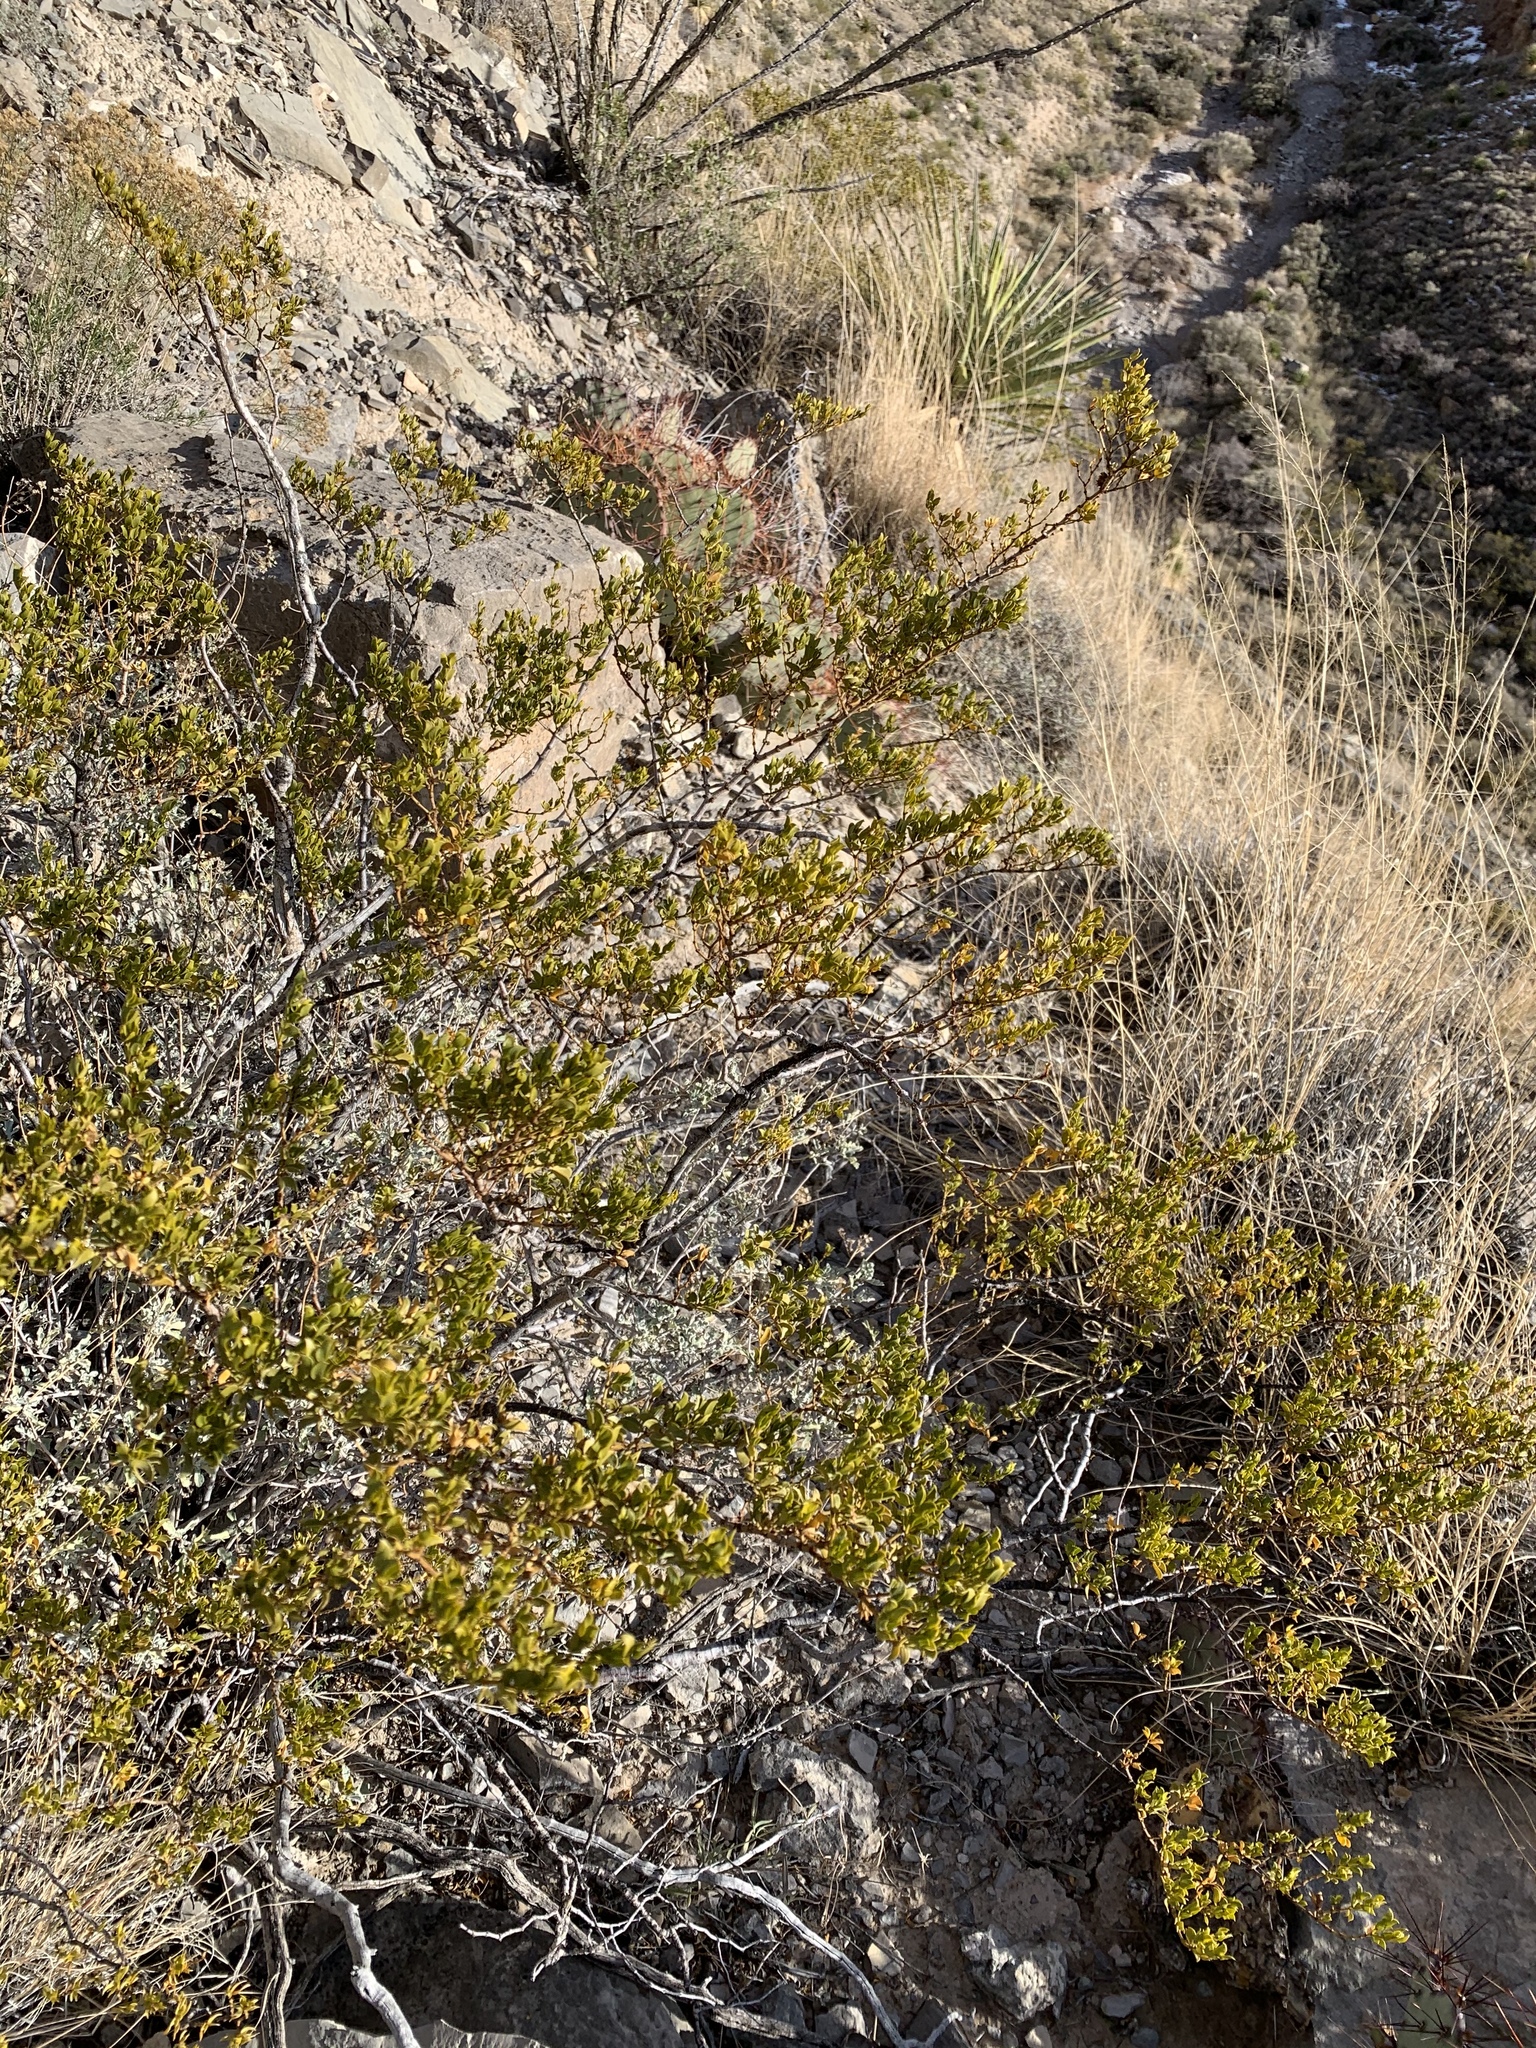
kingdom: Plantae
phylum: Tracheophyta
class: Magnoliopsida
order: Zygophyllales
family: Zygophyllaceae
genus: Larrea
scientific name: Larrea tridentata
